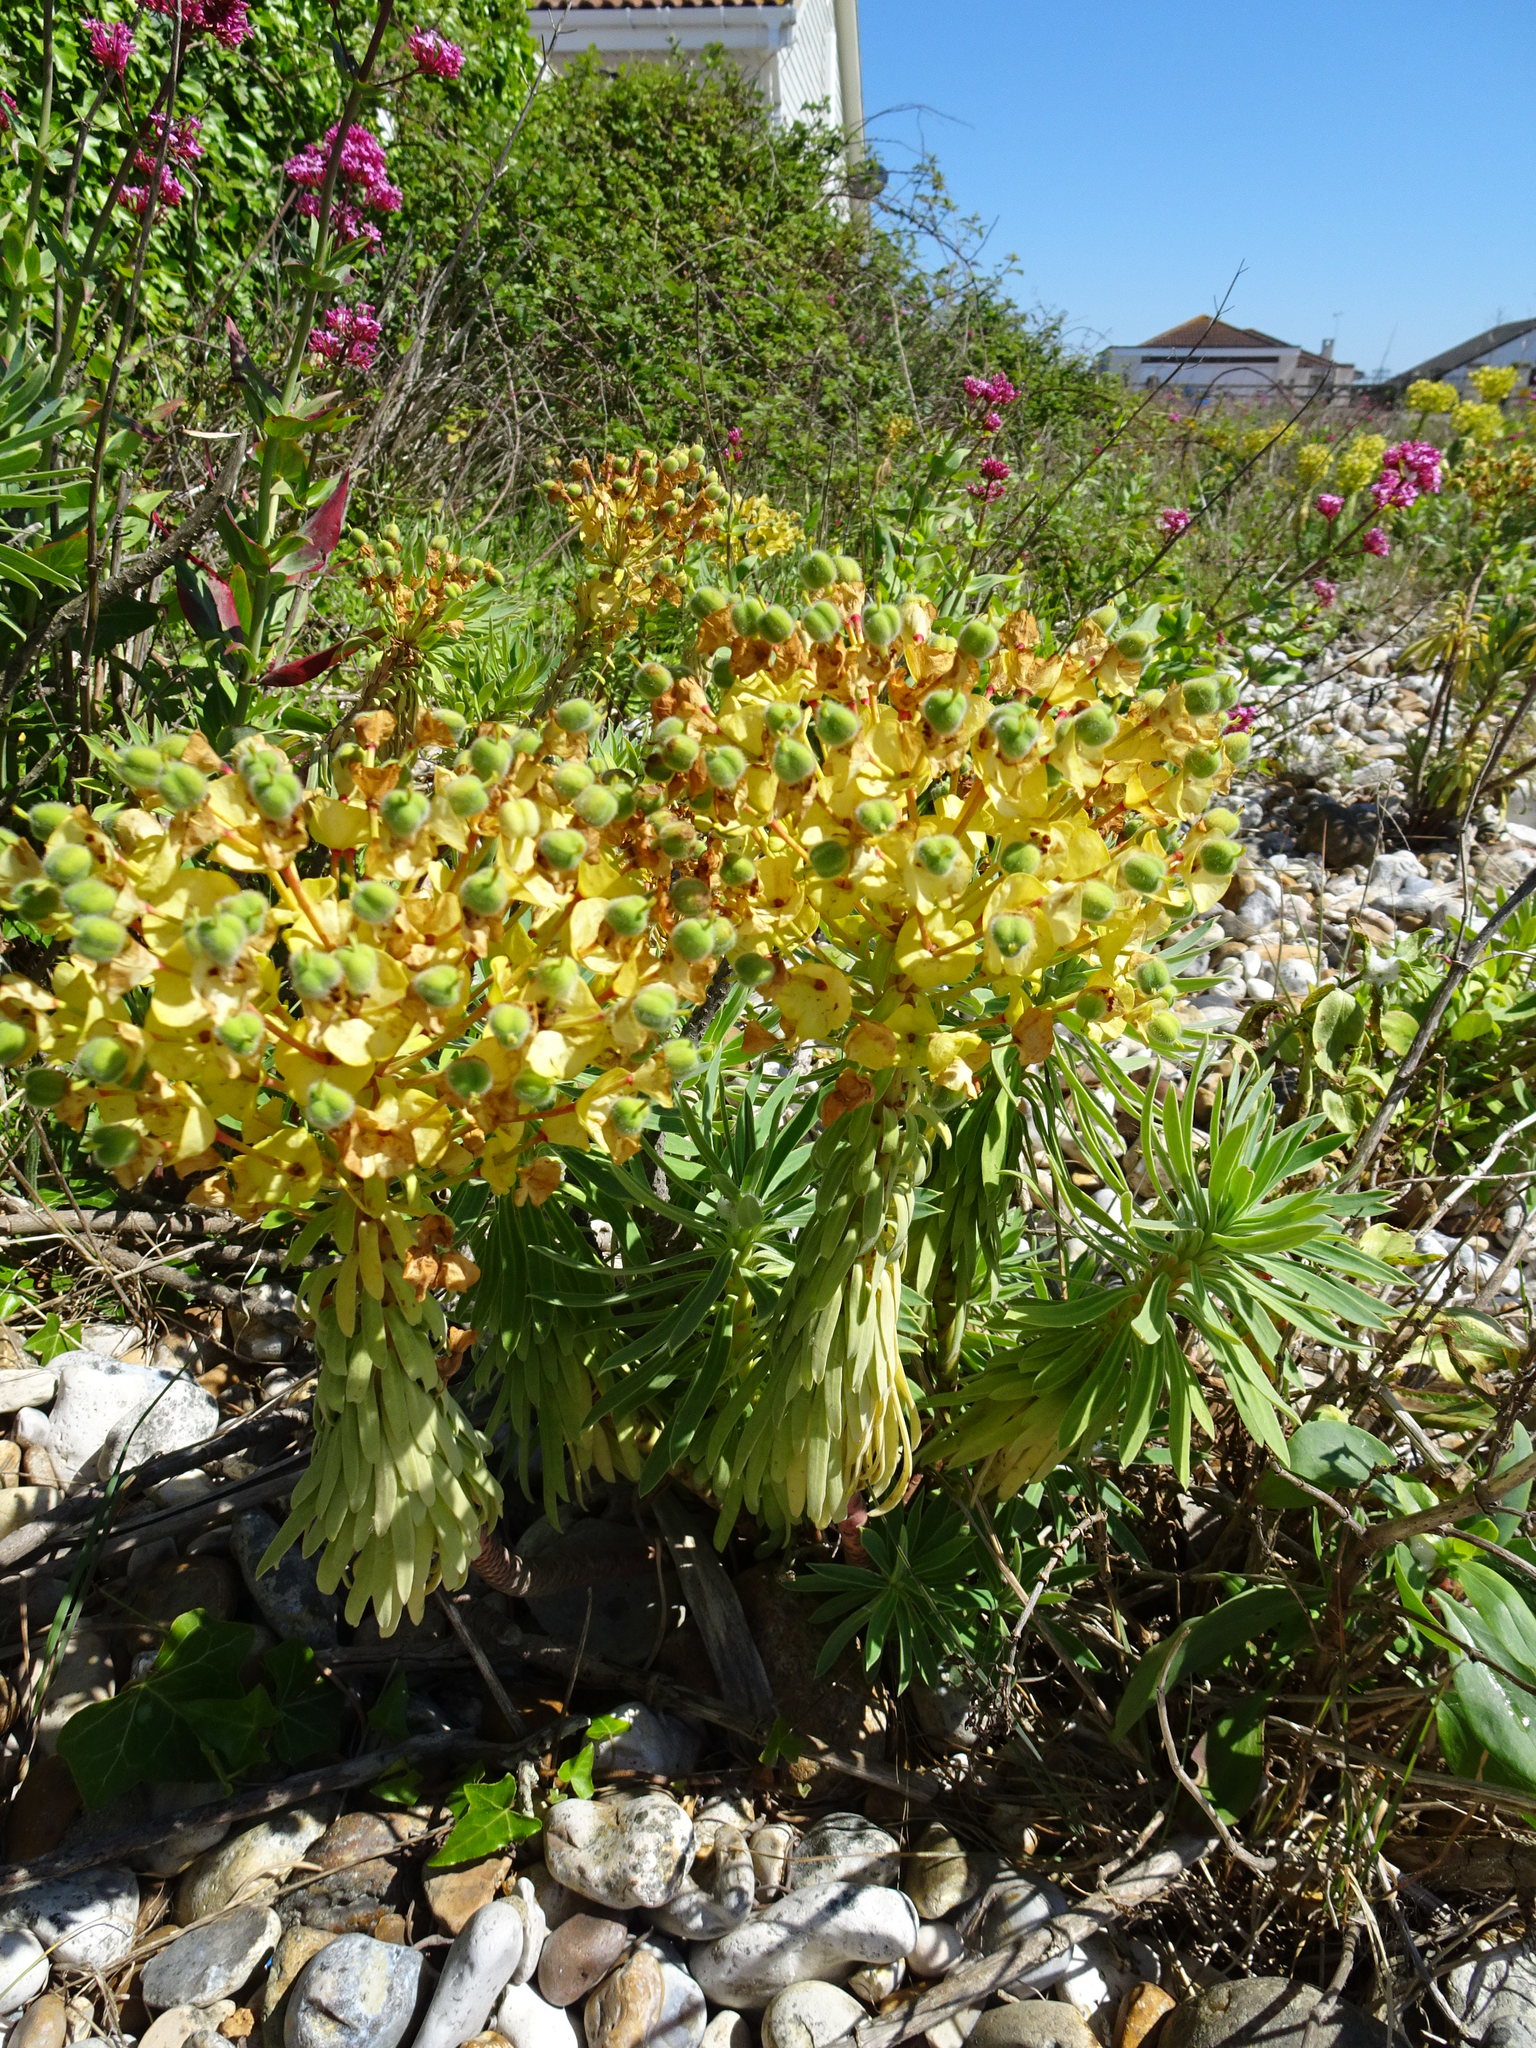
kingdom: Plantae
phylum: Tracheophyta
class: Magnoliopsida
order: Malpighiales
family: Euphorbiaceae
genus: Euphorbia
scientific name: Euphorbia characias
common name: Mediterranean spurge
